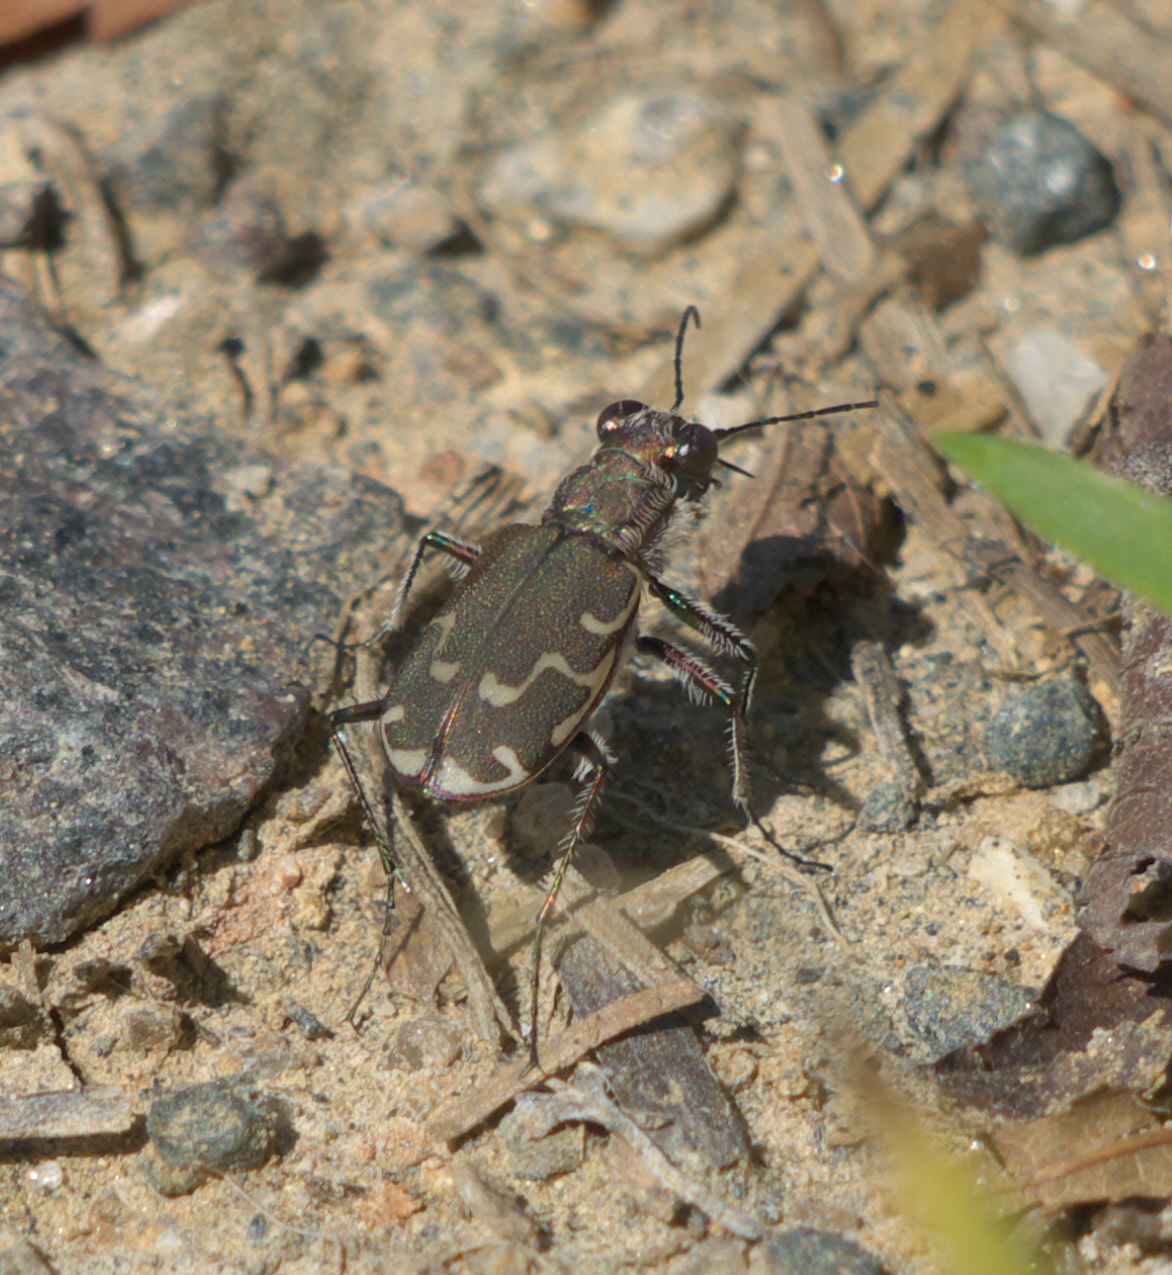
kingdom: Animalia
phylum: Arthropoda
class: Insecta
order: Coleoptera
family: Carabidae
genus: Cicindela
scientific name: Cicindela repanda
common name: Bronzed tiger beetle
